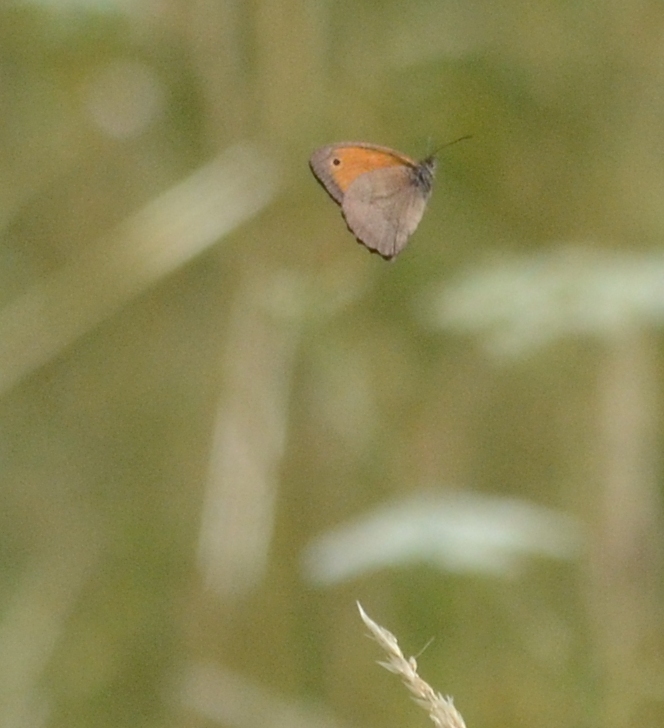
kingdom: Animalia
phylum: Arthropoda
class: Insecta
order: Lepidoptera
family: Nymphalidae
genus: Maniola
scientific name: Maniola jurtina
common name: Meadow brown
